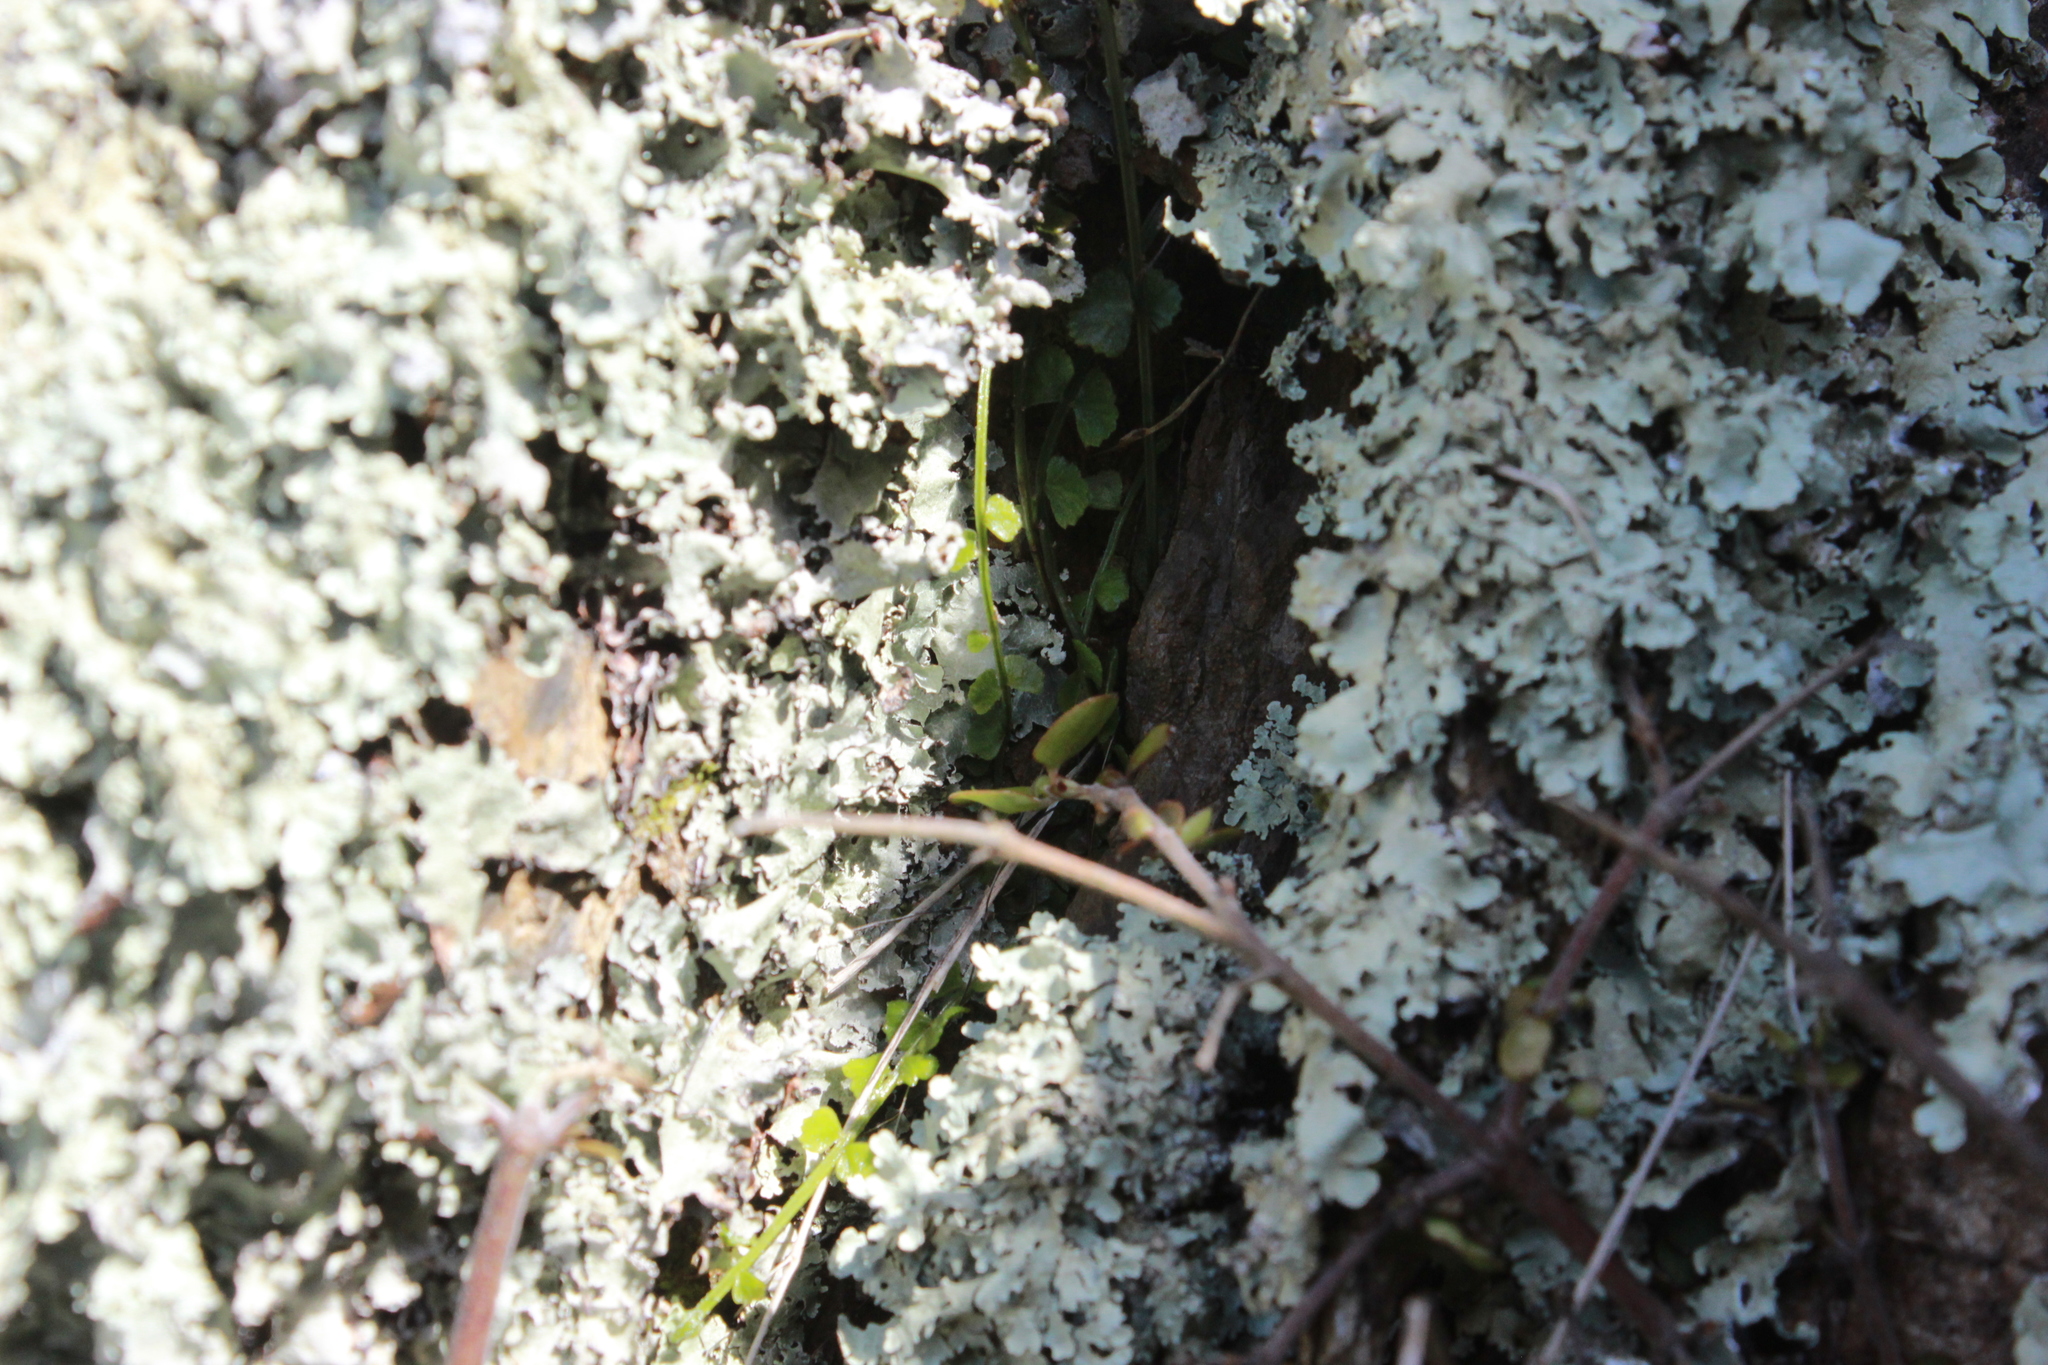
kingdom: Plantae
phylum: Tracheophyta
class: Polypodiopsida
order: Polypodiales
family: Aspleniaceae
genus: Asplenium
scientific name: Asplenium flabellifolium
